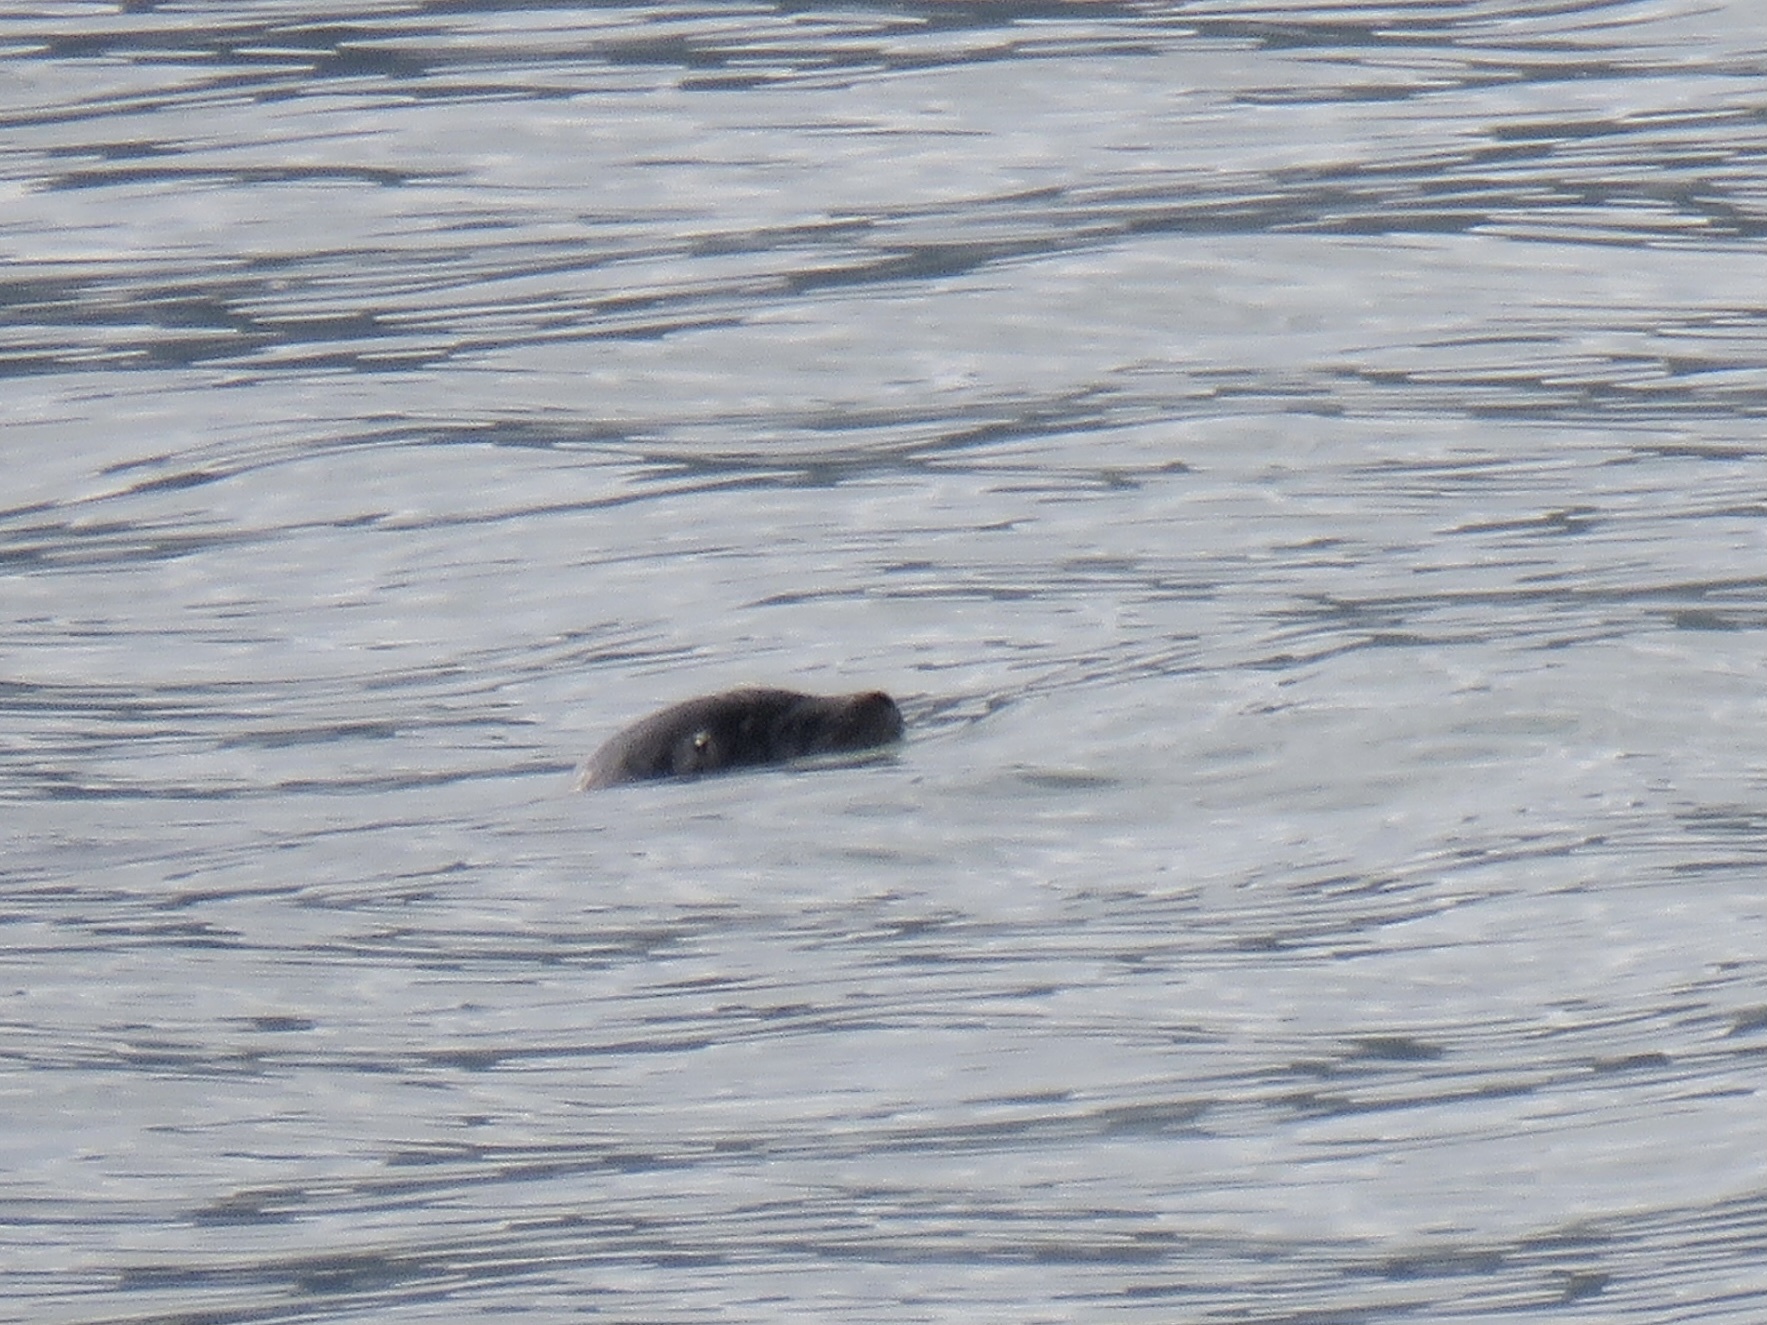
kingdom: Animalia
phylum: Chordata
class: Mammalia
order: Carnivora
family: Phocidae
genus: Phoca
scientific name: Phoca vitulina
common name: Harbor seal
